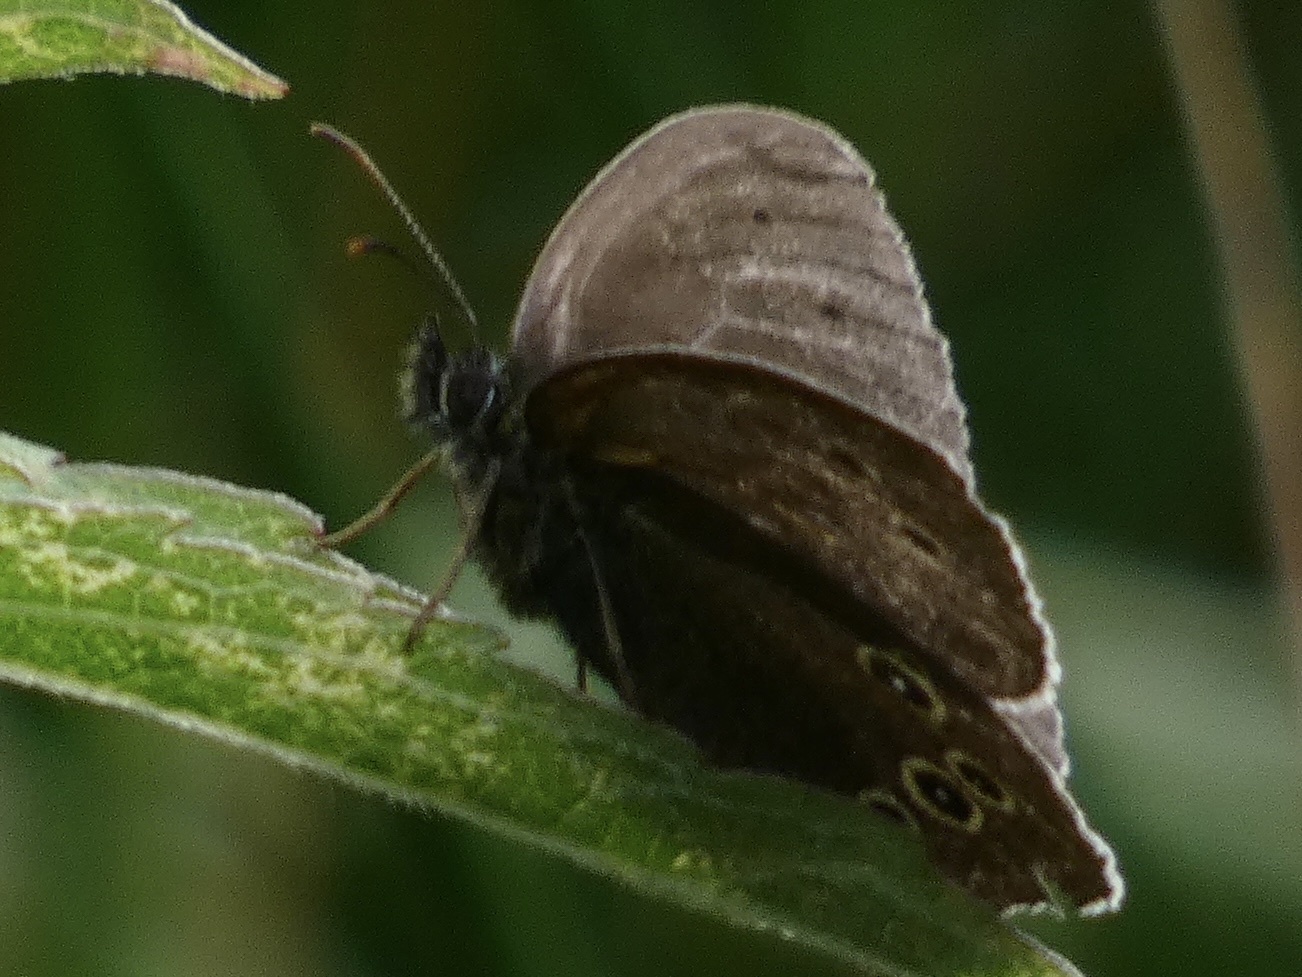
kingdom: Animalia
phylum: Arthropoda
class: Insecta
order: Lepidoptera
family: Nymphalidae
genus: Aphantopus
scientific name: Aphantopus hyperantus
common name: Ringlet
